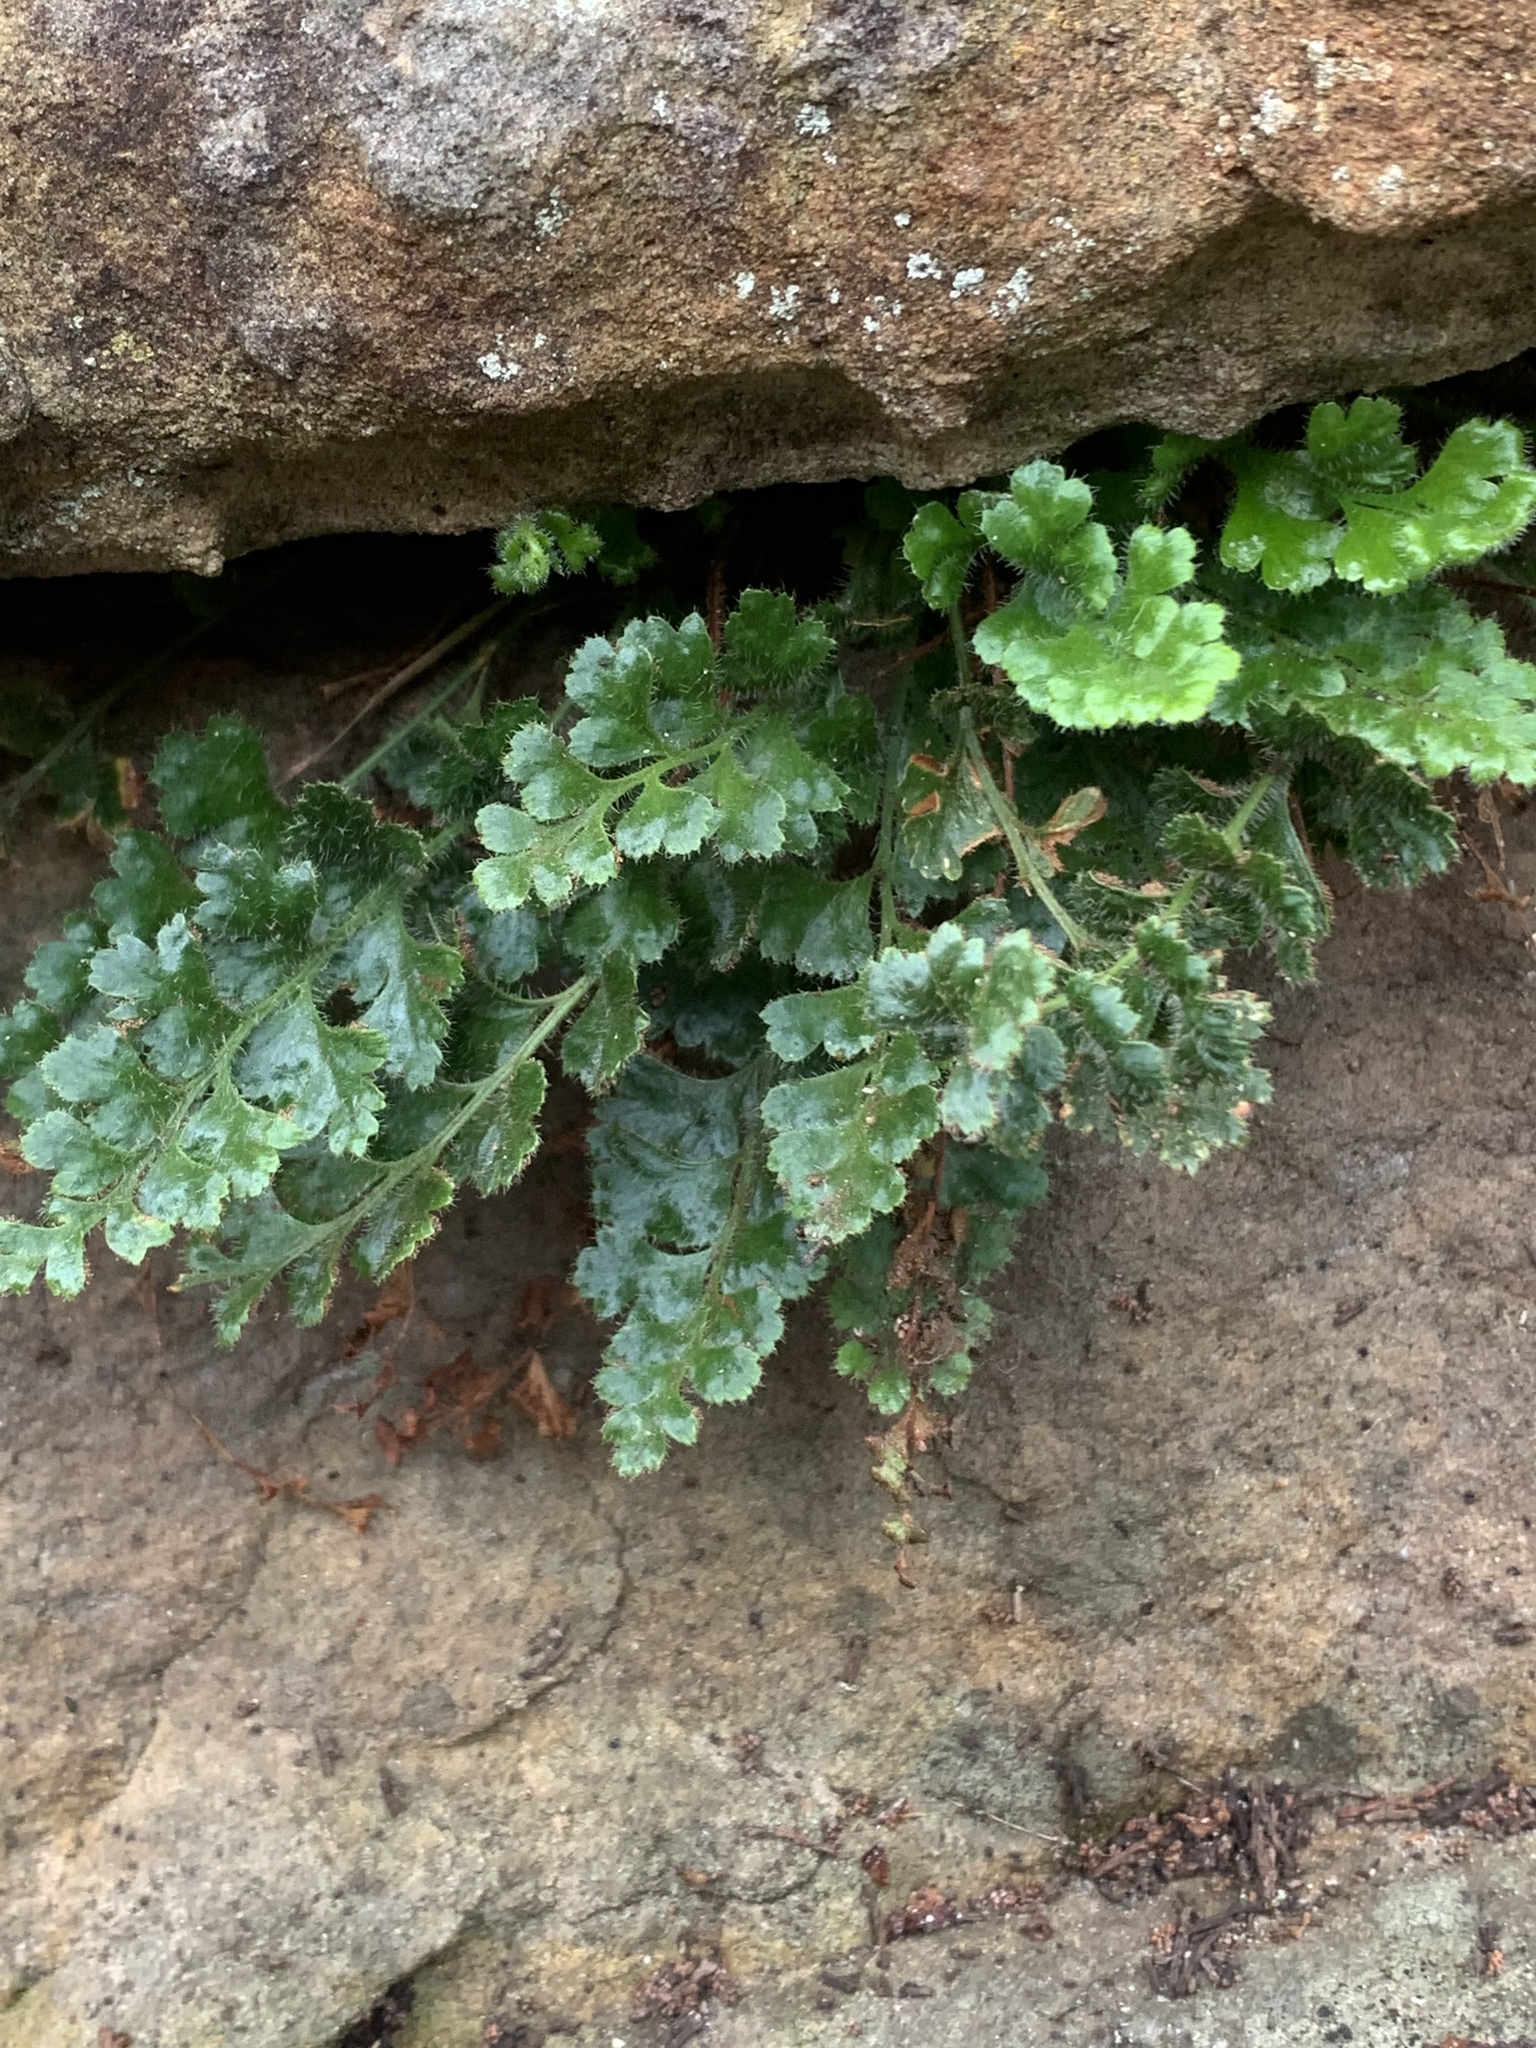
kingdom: Plantae
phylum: Tracheophyta
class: Polypodiopsida
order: Polypodiales
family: Aspleniaceae
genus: Asplenium
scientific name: Asplenium subglandulosum
